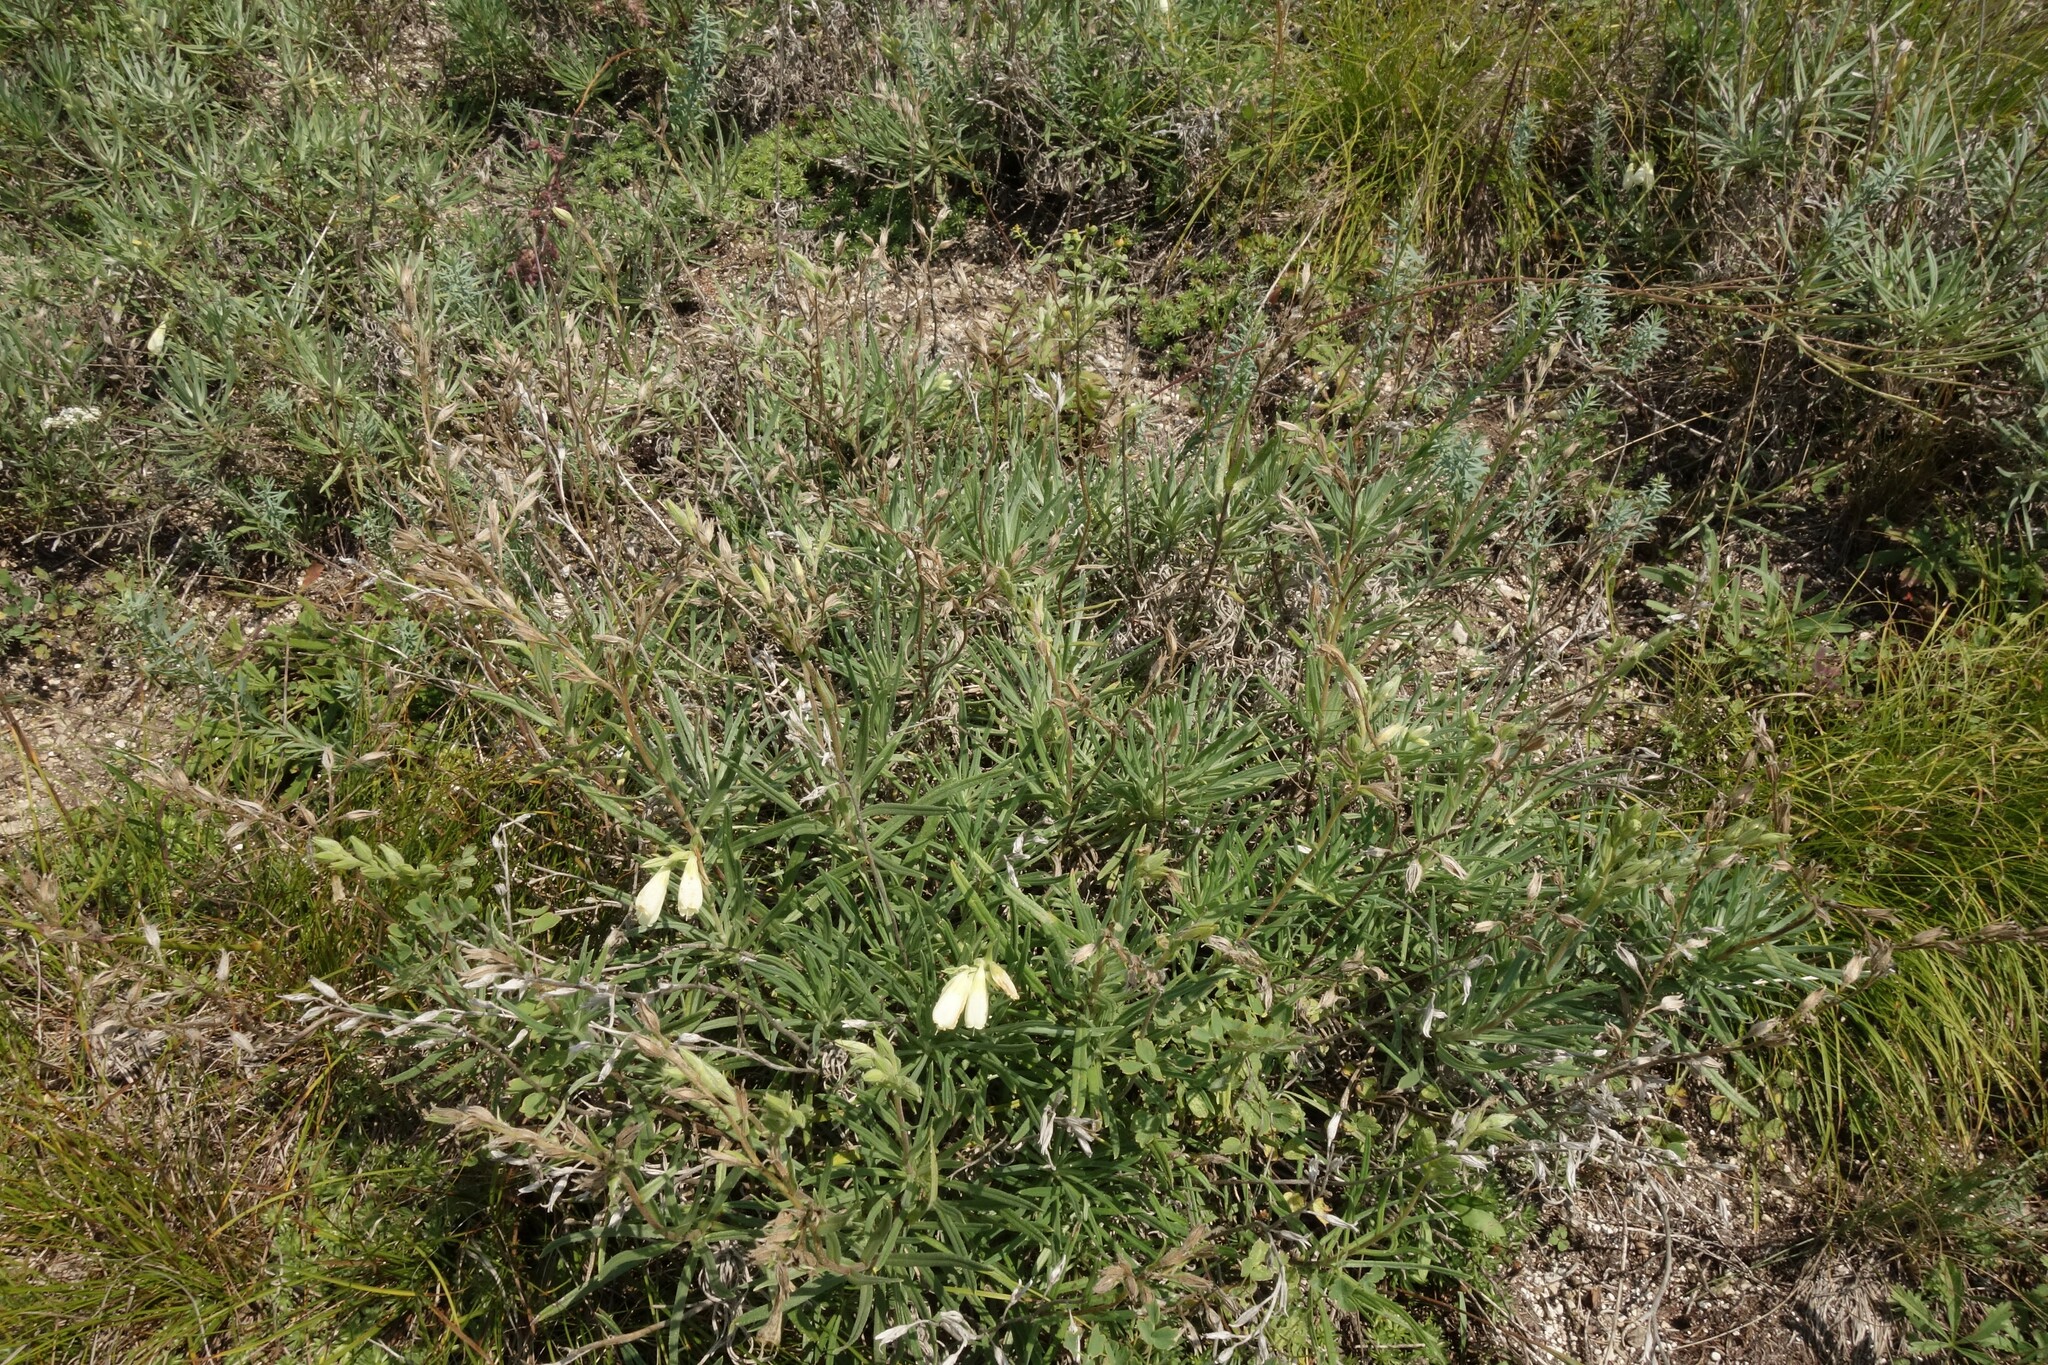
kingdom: Plantae
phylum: Tracheophyta
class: Magnoliopsida
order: Boraginales
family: Boraginaceae
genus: Onosma
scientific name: Onosma simplicissima
